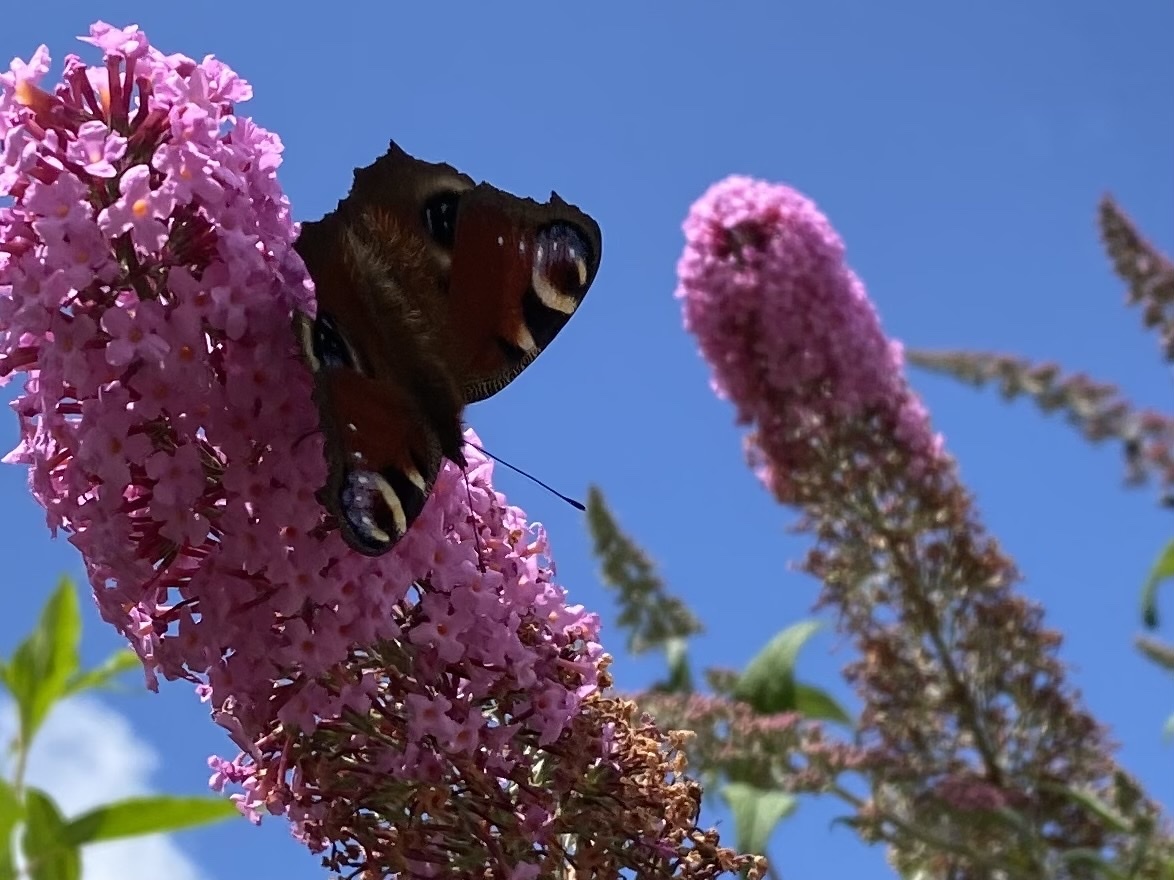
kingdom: Animalia
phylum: Arthropoda
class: Insecta
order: Lepidoptera
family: Nymphalidae
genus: Aglais
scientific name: Aglais io
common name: Peacock
